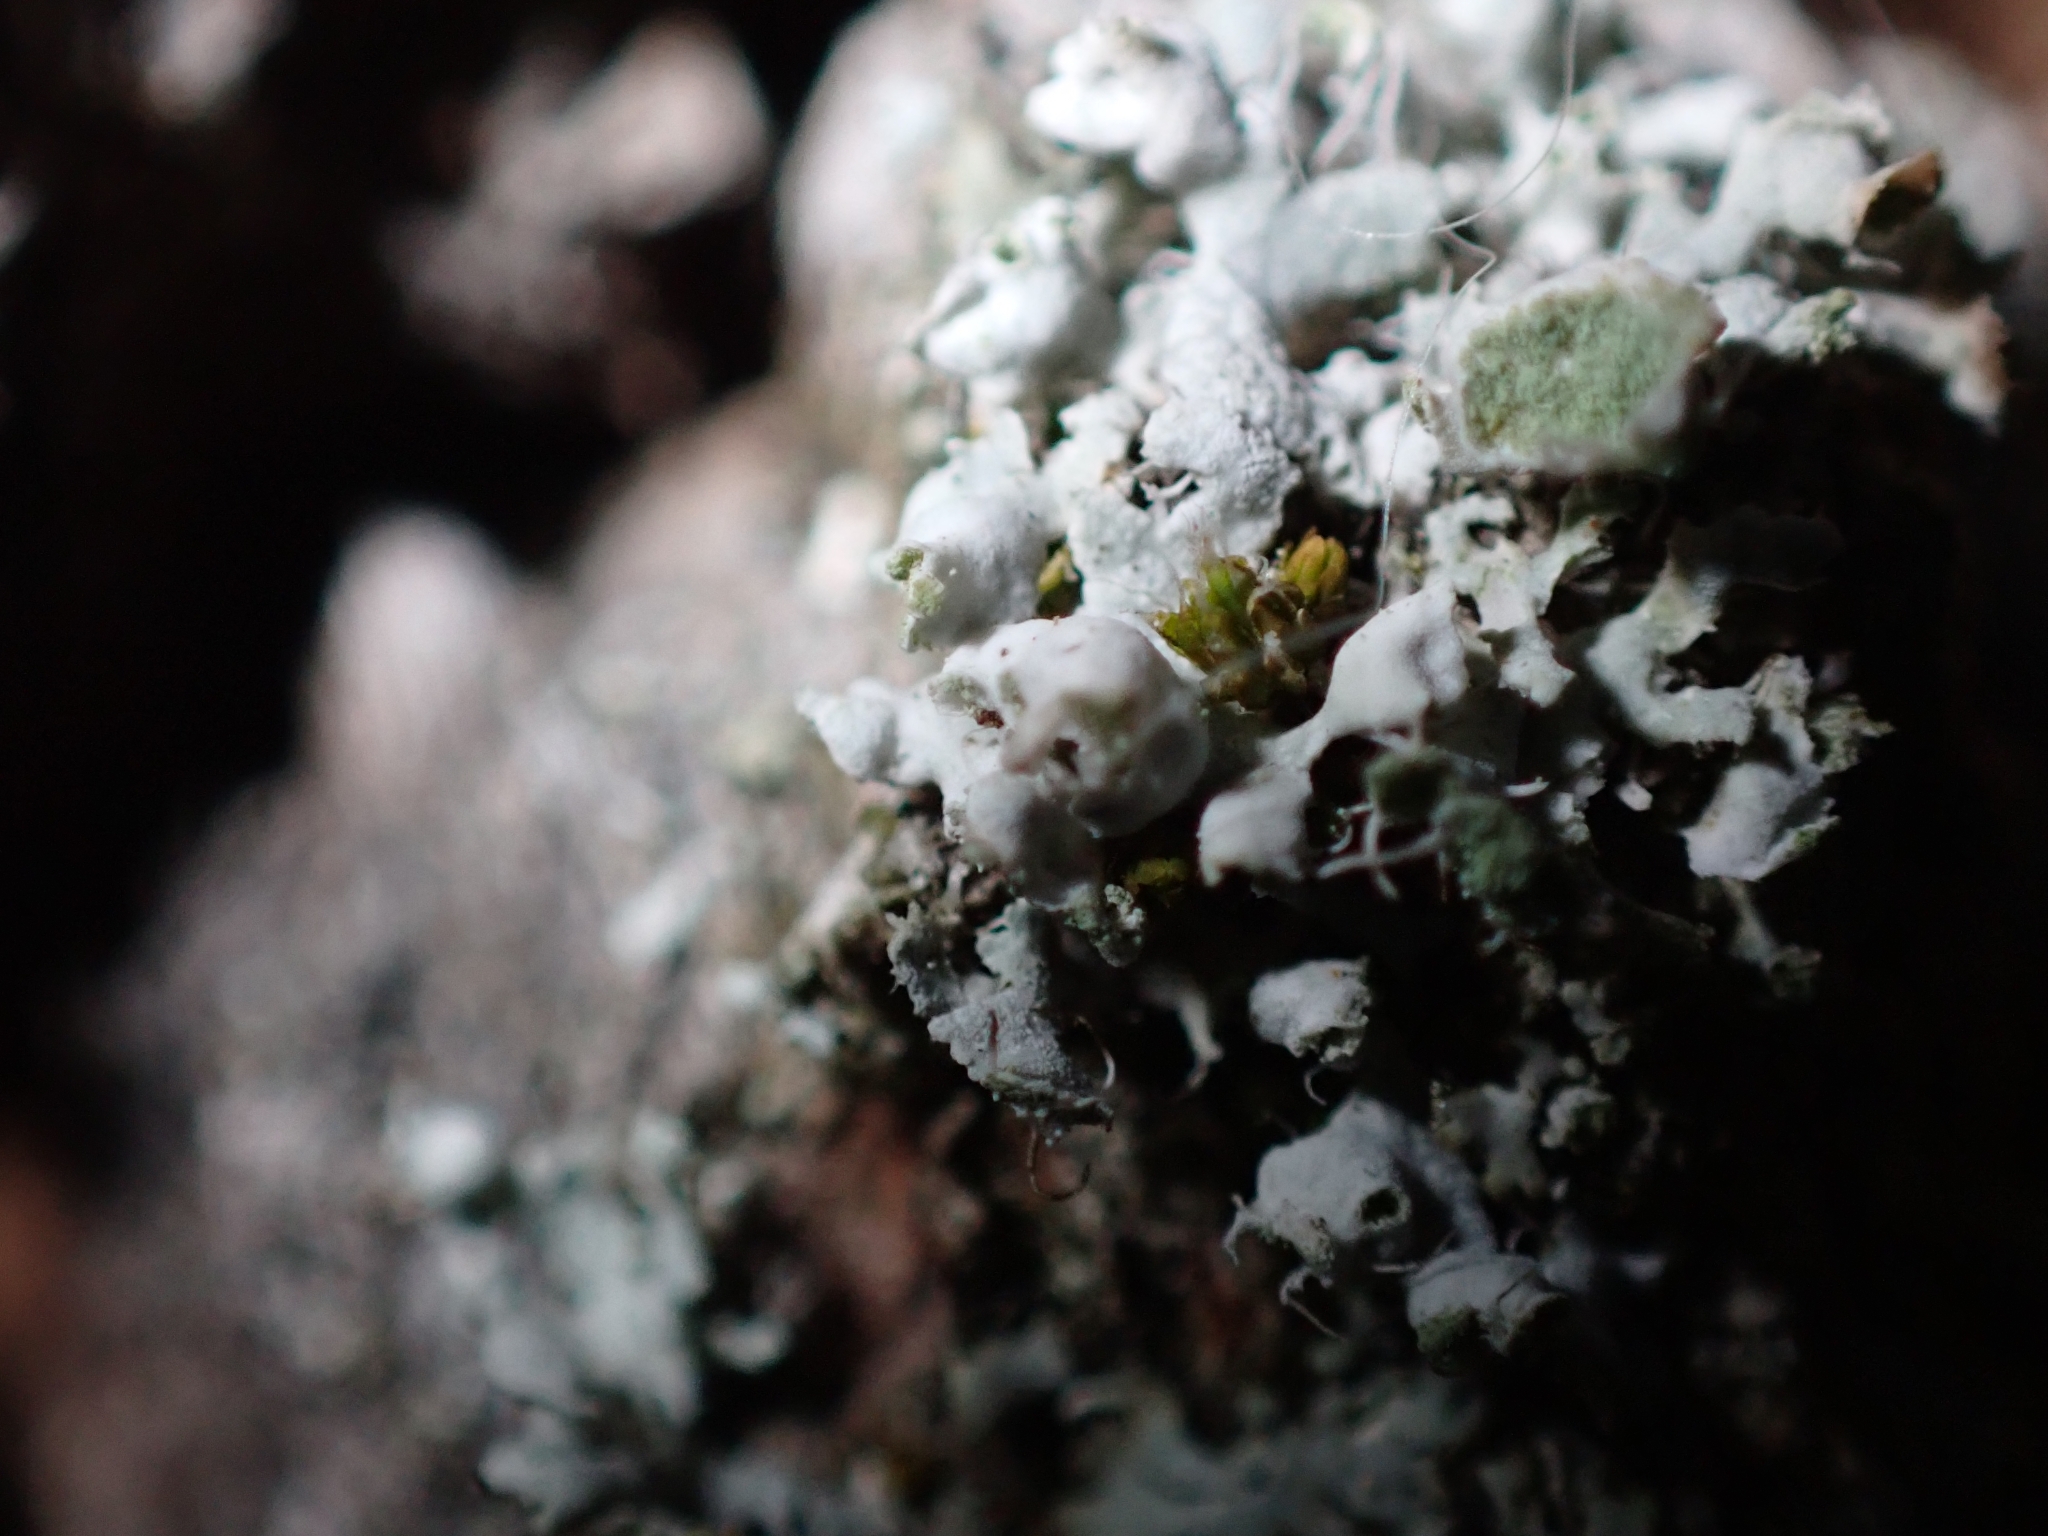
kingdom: Fungi
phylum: Ascomycota
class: Lecanoromycetes
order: Caliciales
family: Physciaceae
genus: Physcia
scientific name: Physcia adscendens
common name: Hooded rosette lichen
